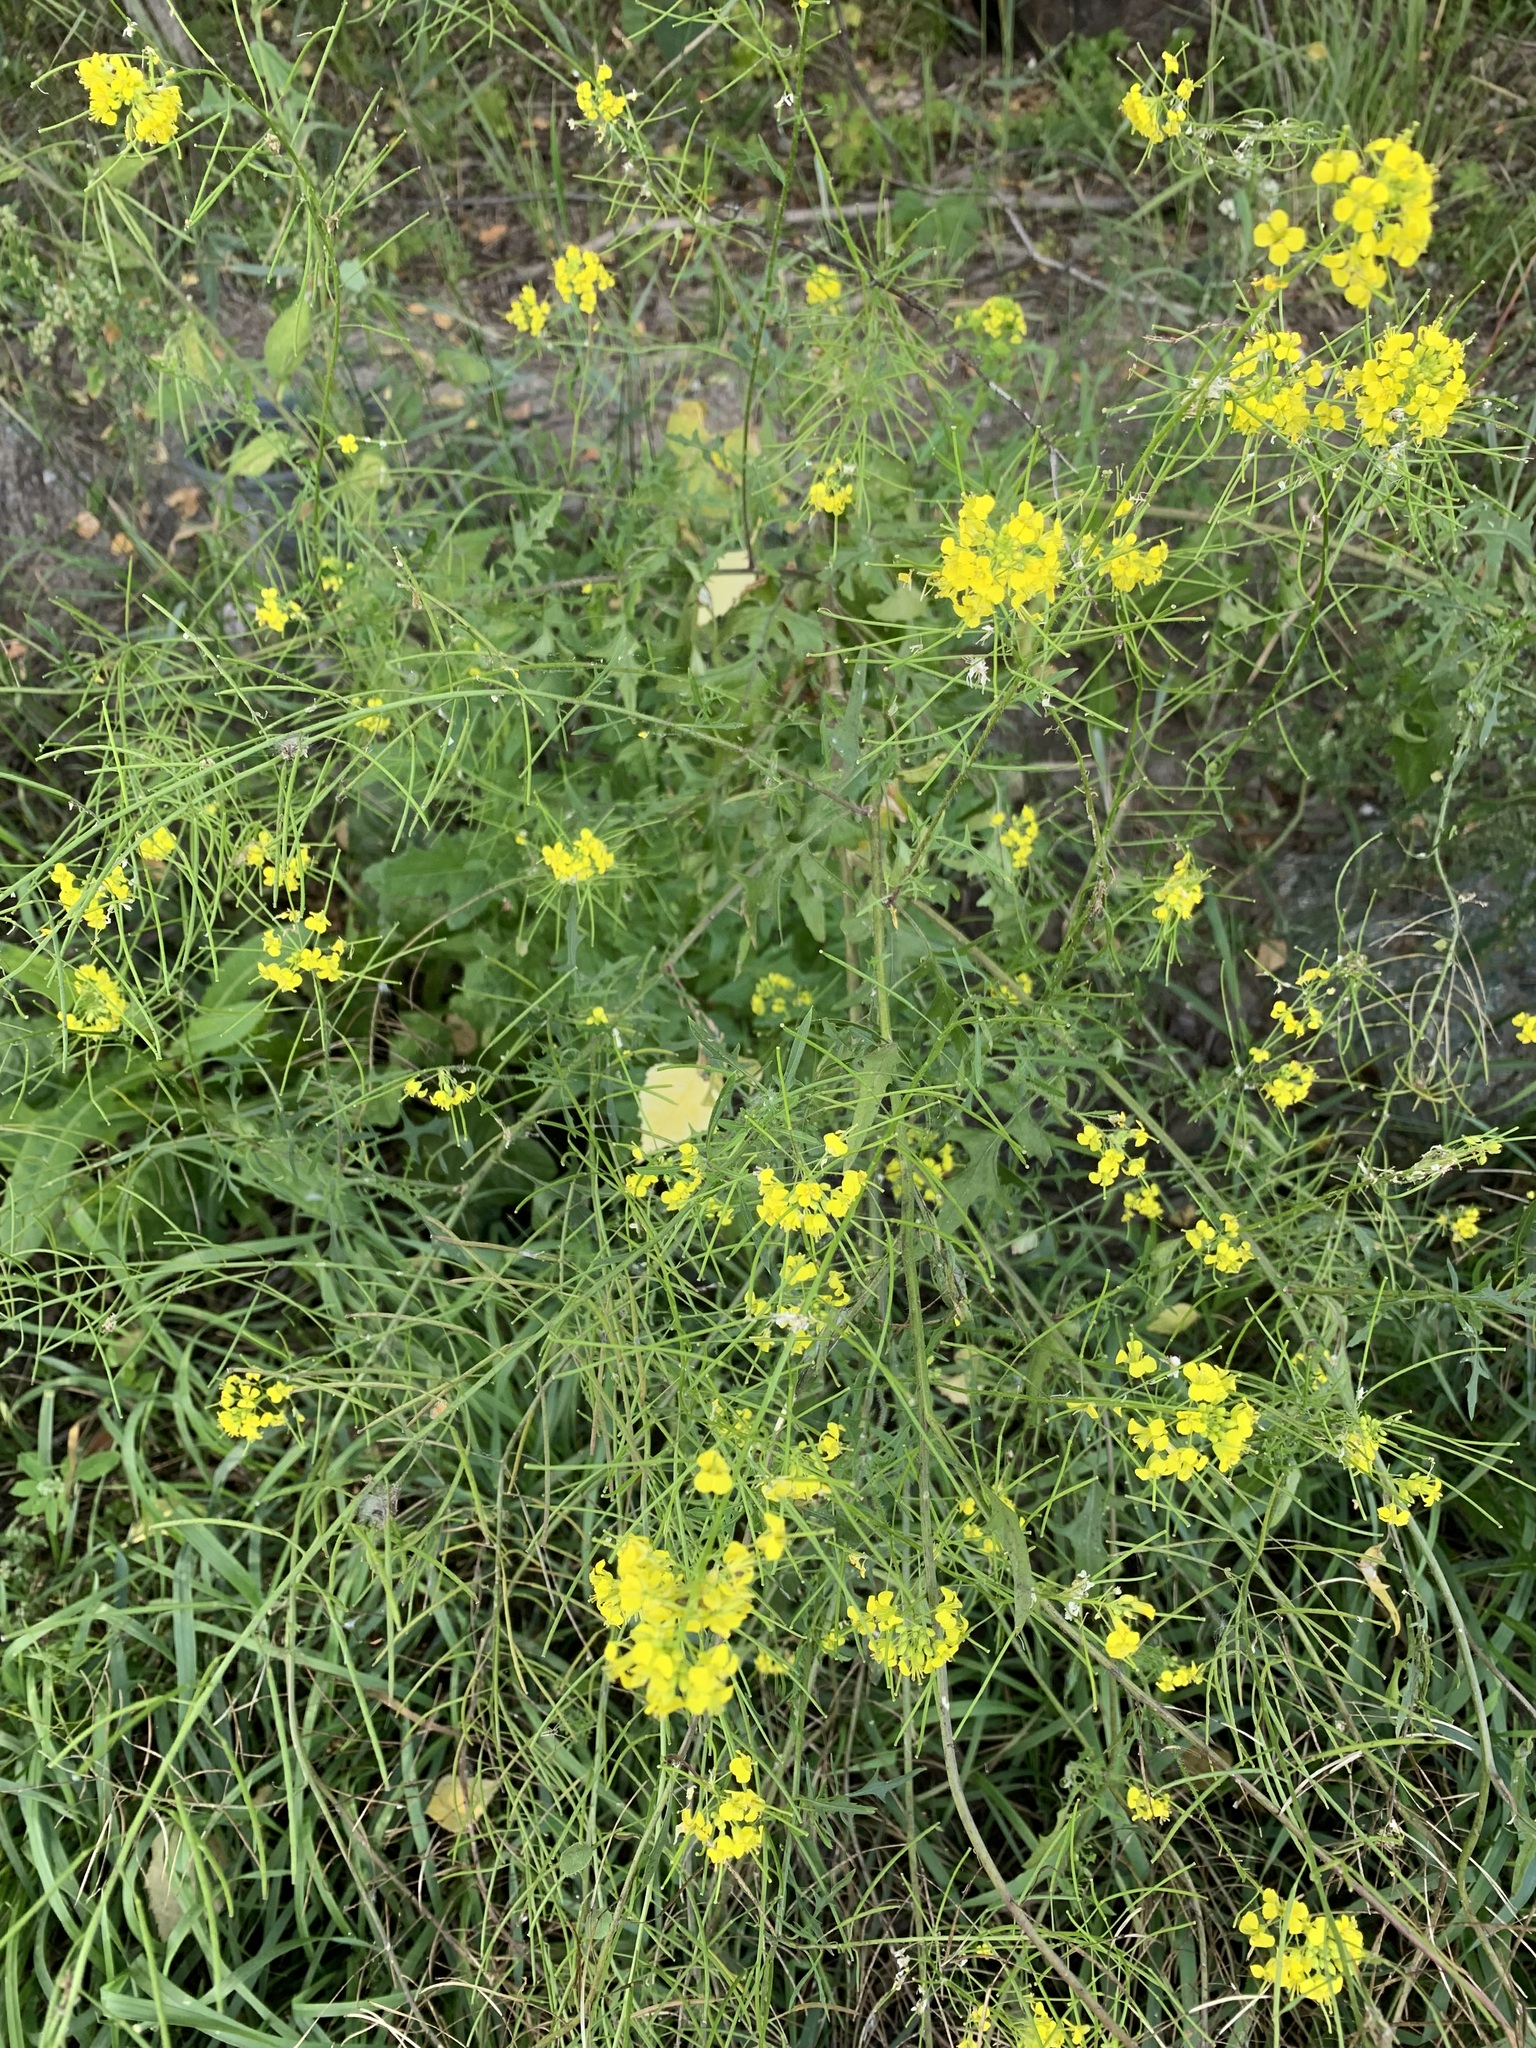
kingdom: Plantae
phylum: Tracheophyta
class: Magnoliopsida
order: Brassicales
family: Brassicaceae
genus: Sisymbrium
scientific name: Sisymbrium loeselii
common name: False london-rocket
